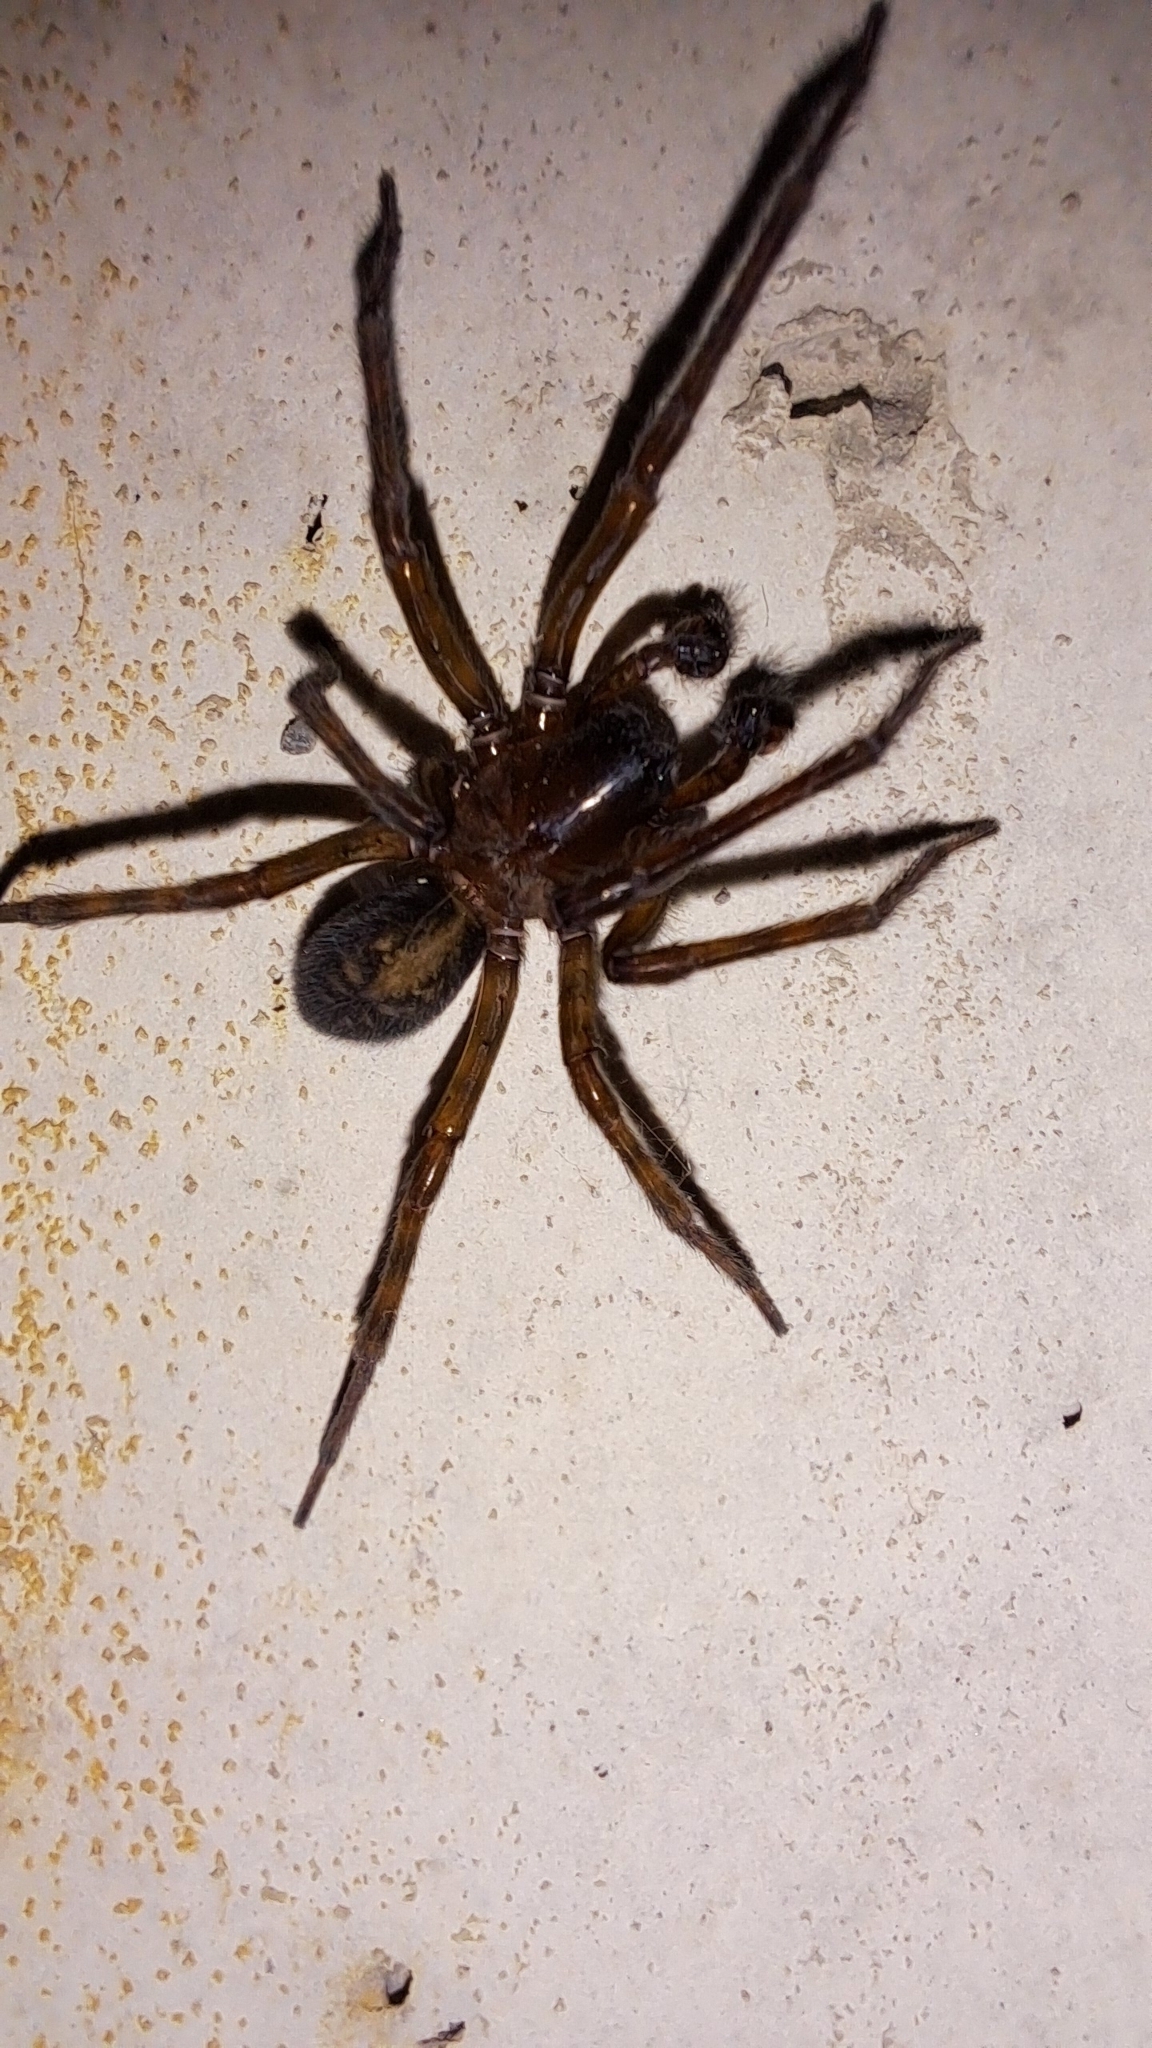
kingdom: Animalia
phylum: Arthropoda
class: Arachnida
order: Araneae
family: Amaurobiidae
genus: Amaurobius
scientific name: Amaurobius ferox
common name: Black laceweaver
